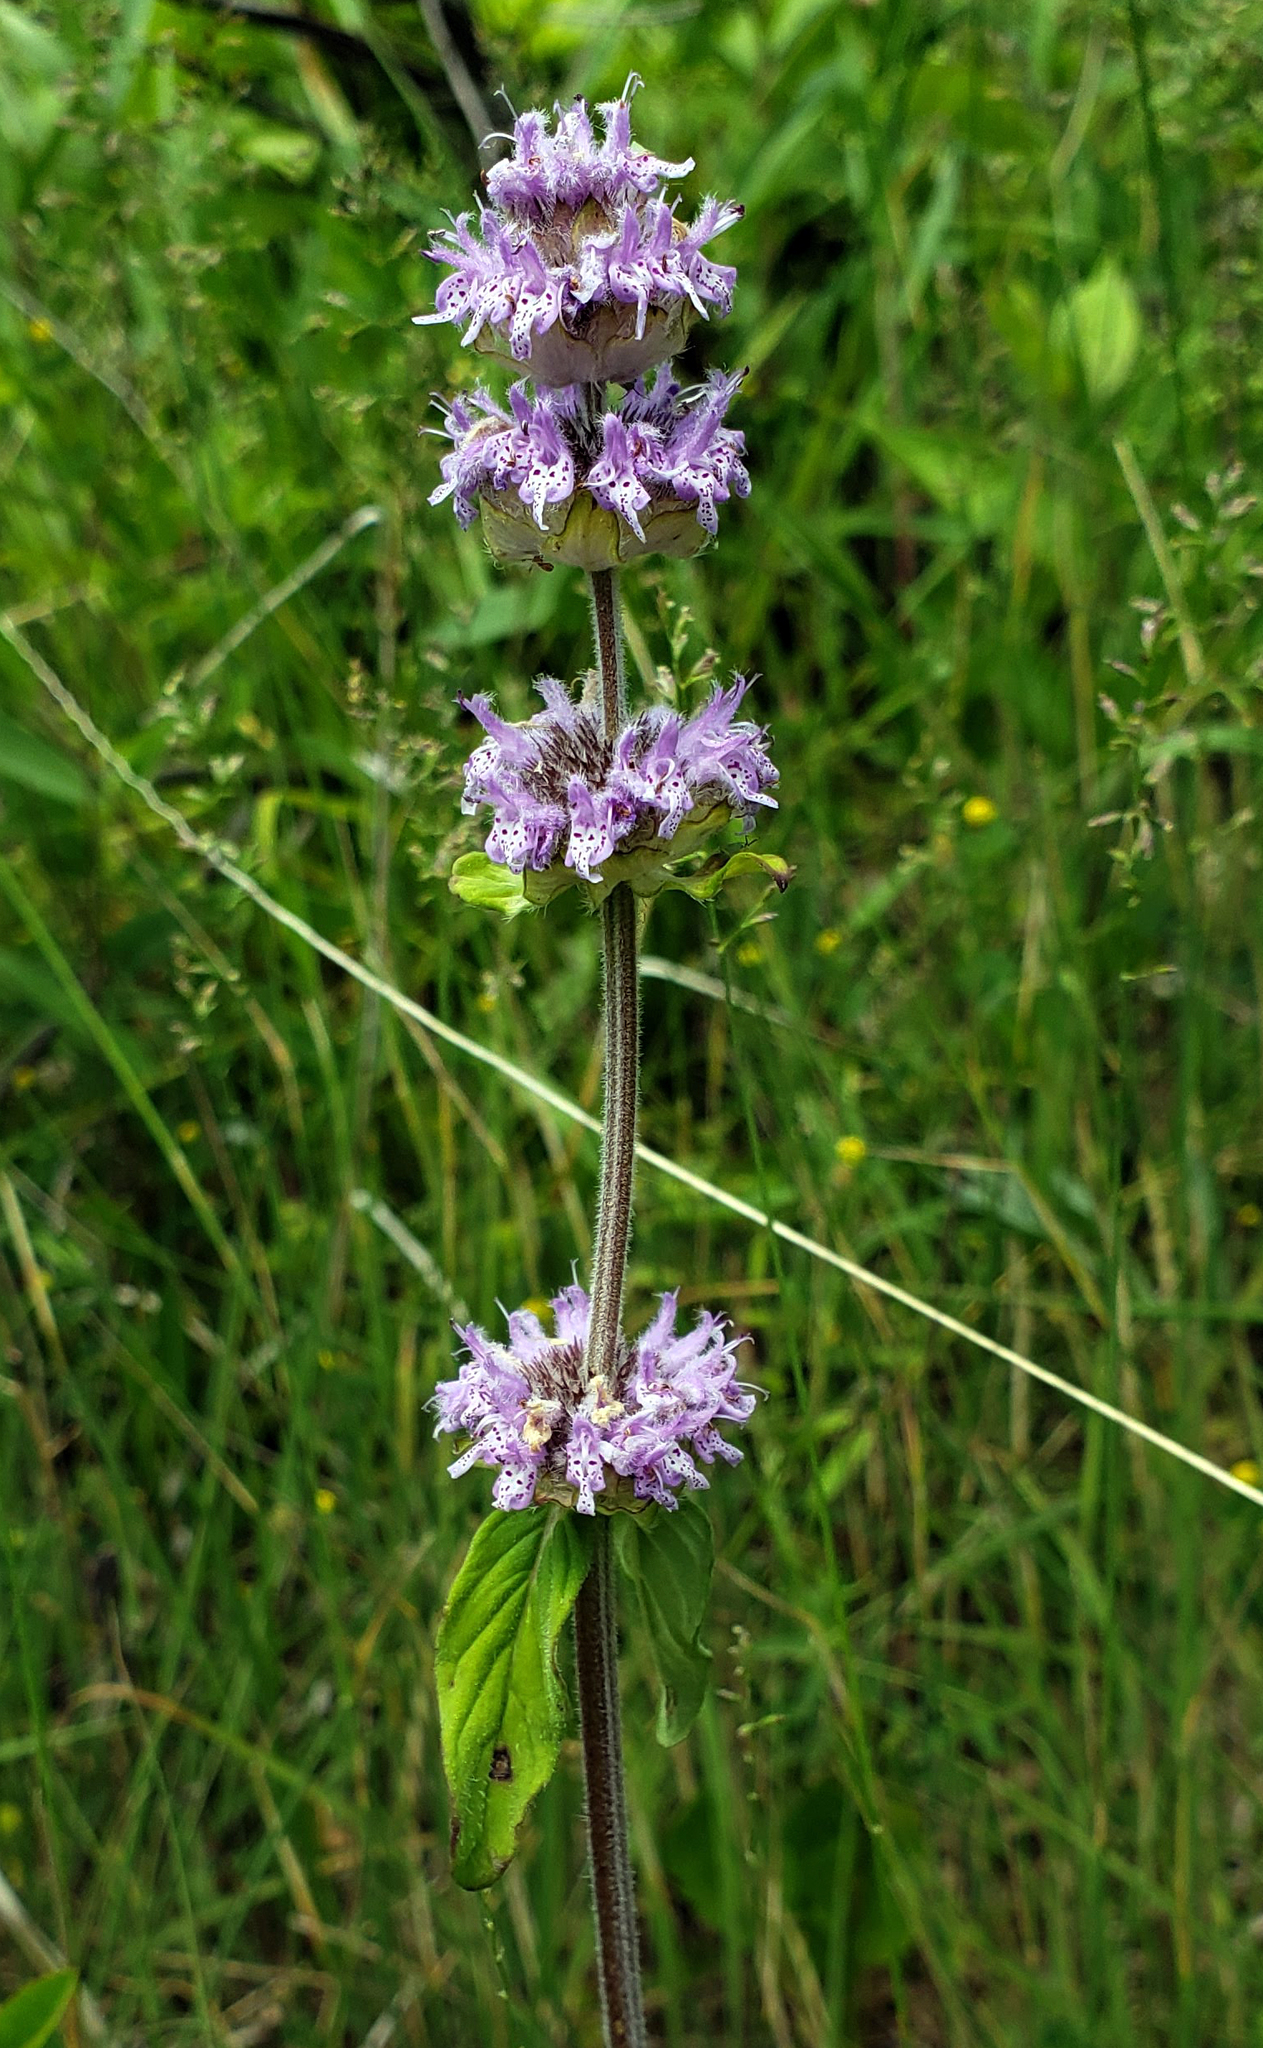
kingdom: Plantae
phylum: Tracheophyta
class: Magnoliopsida
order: Lamiales
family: Lamiaceae
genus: Blephilia
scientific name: Blephilia ciliata
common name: Downy blephilia
